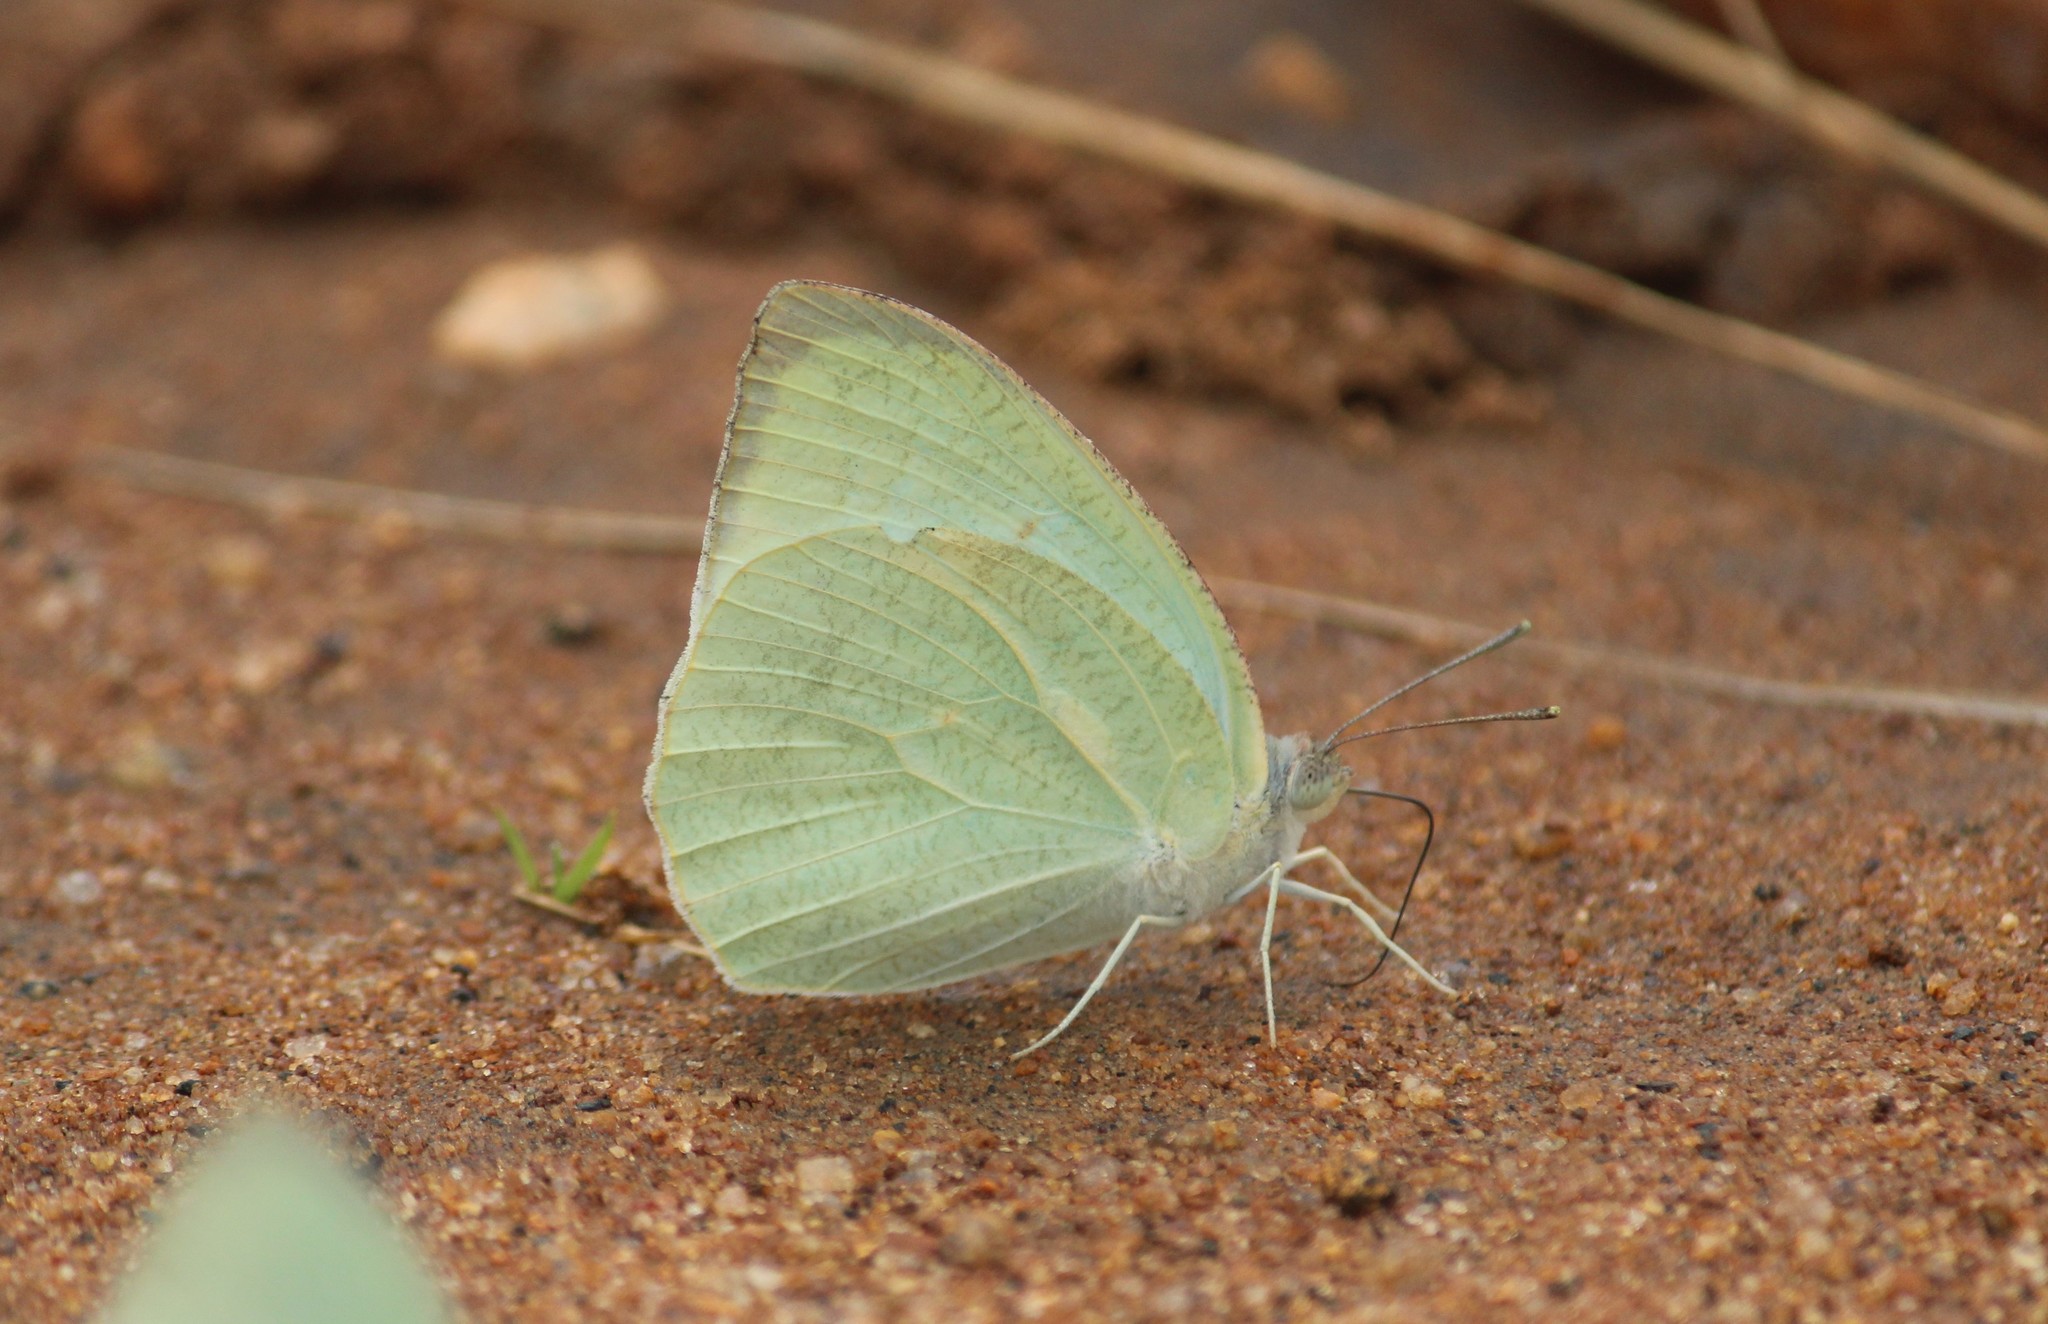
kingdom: Animalia
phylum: Arthropoda
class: Insecta
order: Lepidoptera
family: Pieridae
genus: Catopsilia
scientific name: Catopsilia pyranthe
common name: Mottled emigrant
